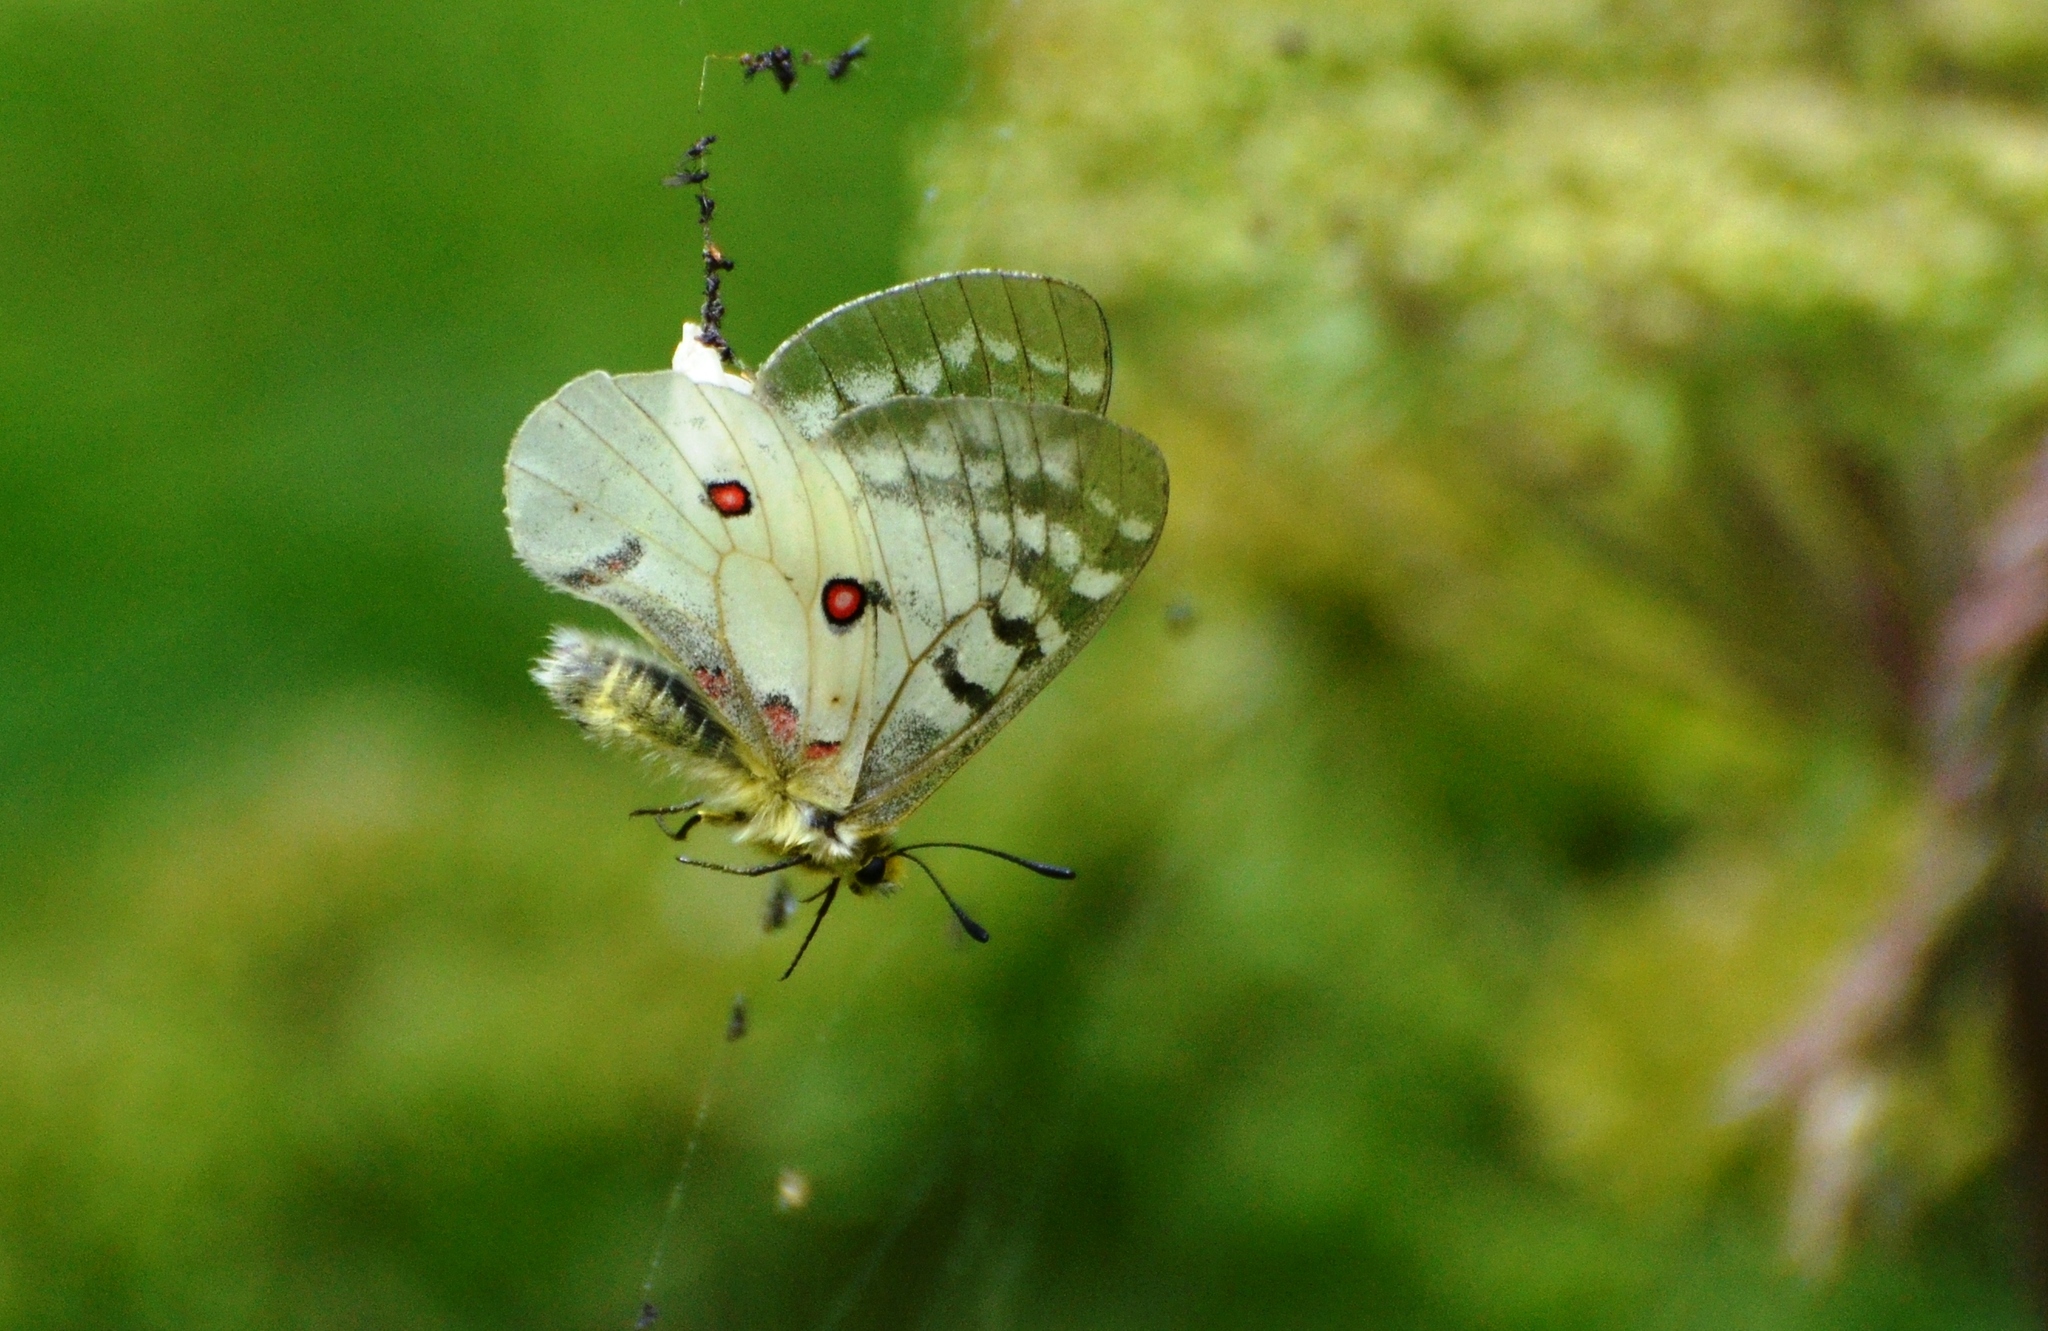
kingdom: Animalia
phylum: Arthropoda
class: Insecta
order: Lepidoptera
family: Papilionidae
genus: Parnassius
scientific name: Parnassius clodius
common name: American apollo
